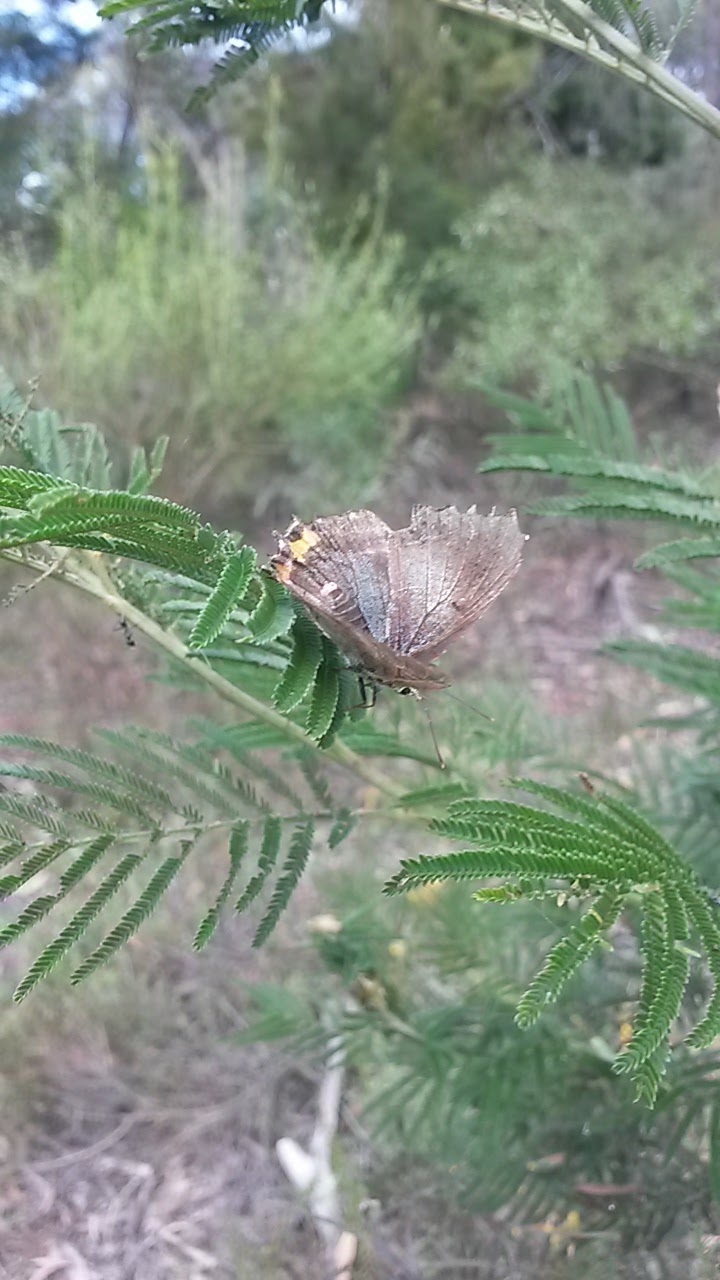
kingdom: Animalia
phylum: Arthropoda
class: Insecta
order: Lepidoptera
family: Lycaenidae
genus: Jalmenus
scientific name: Jalmenus ictinus
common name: Stencilled hairstreak
